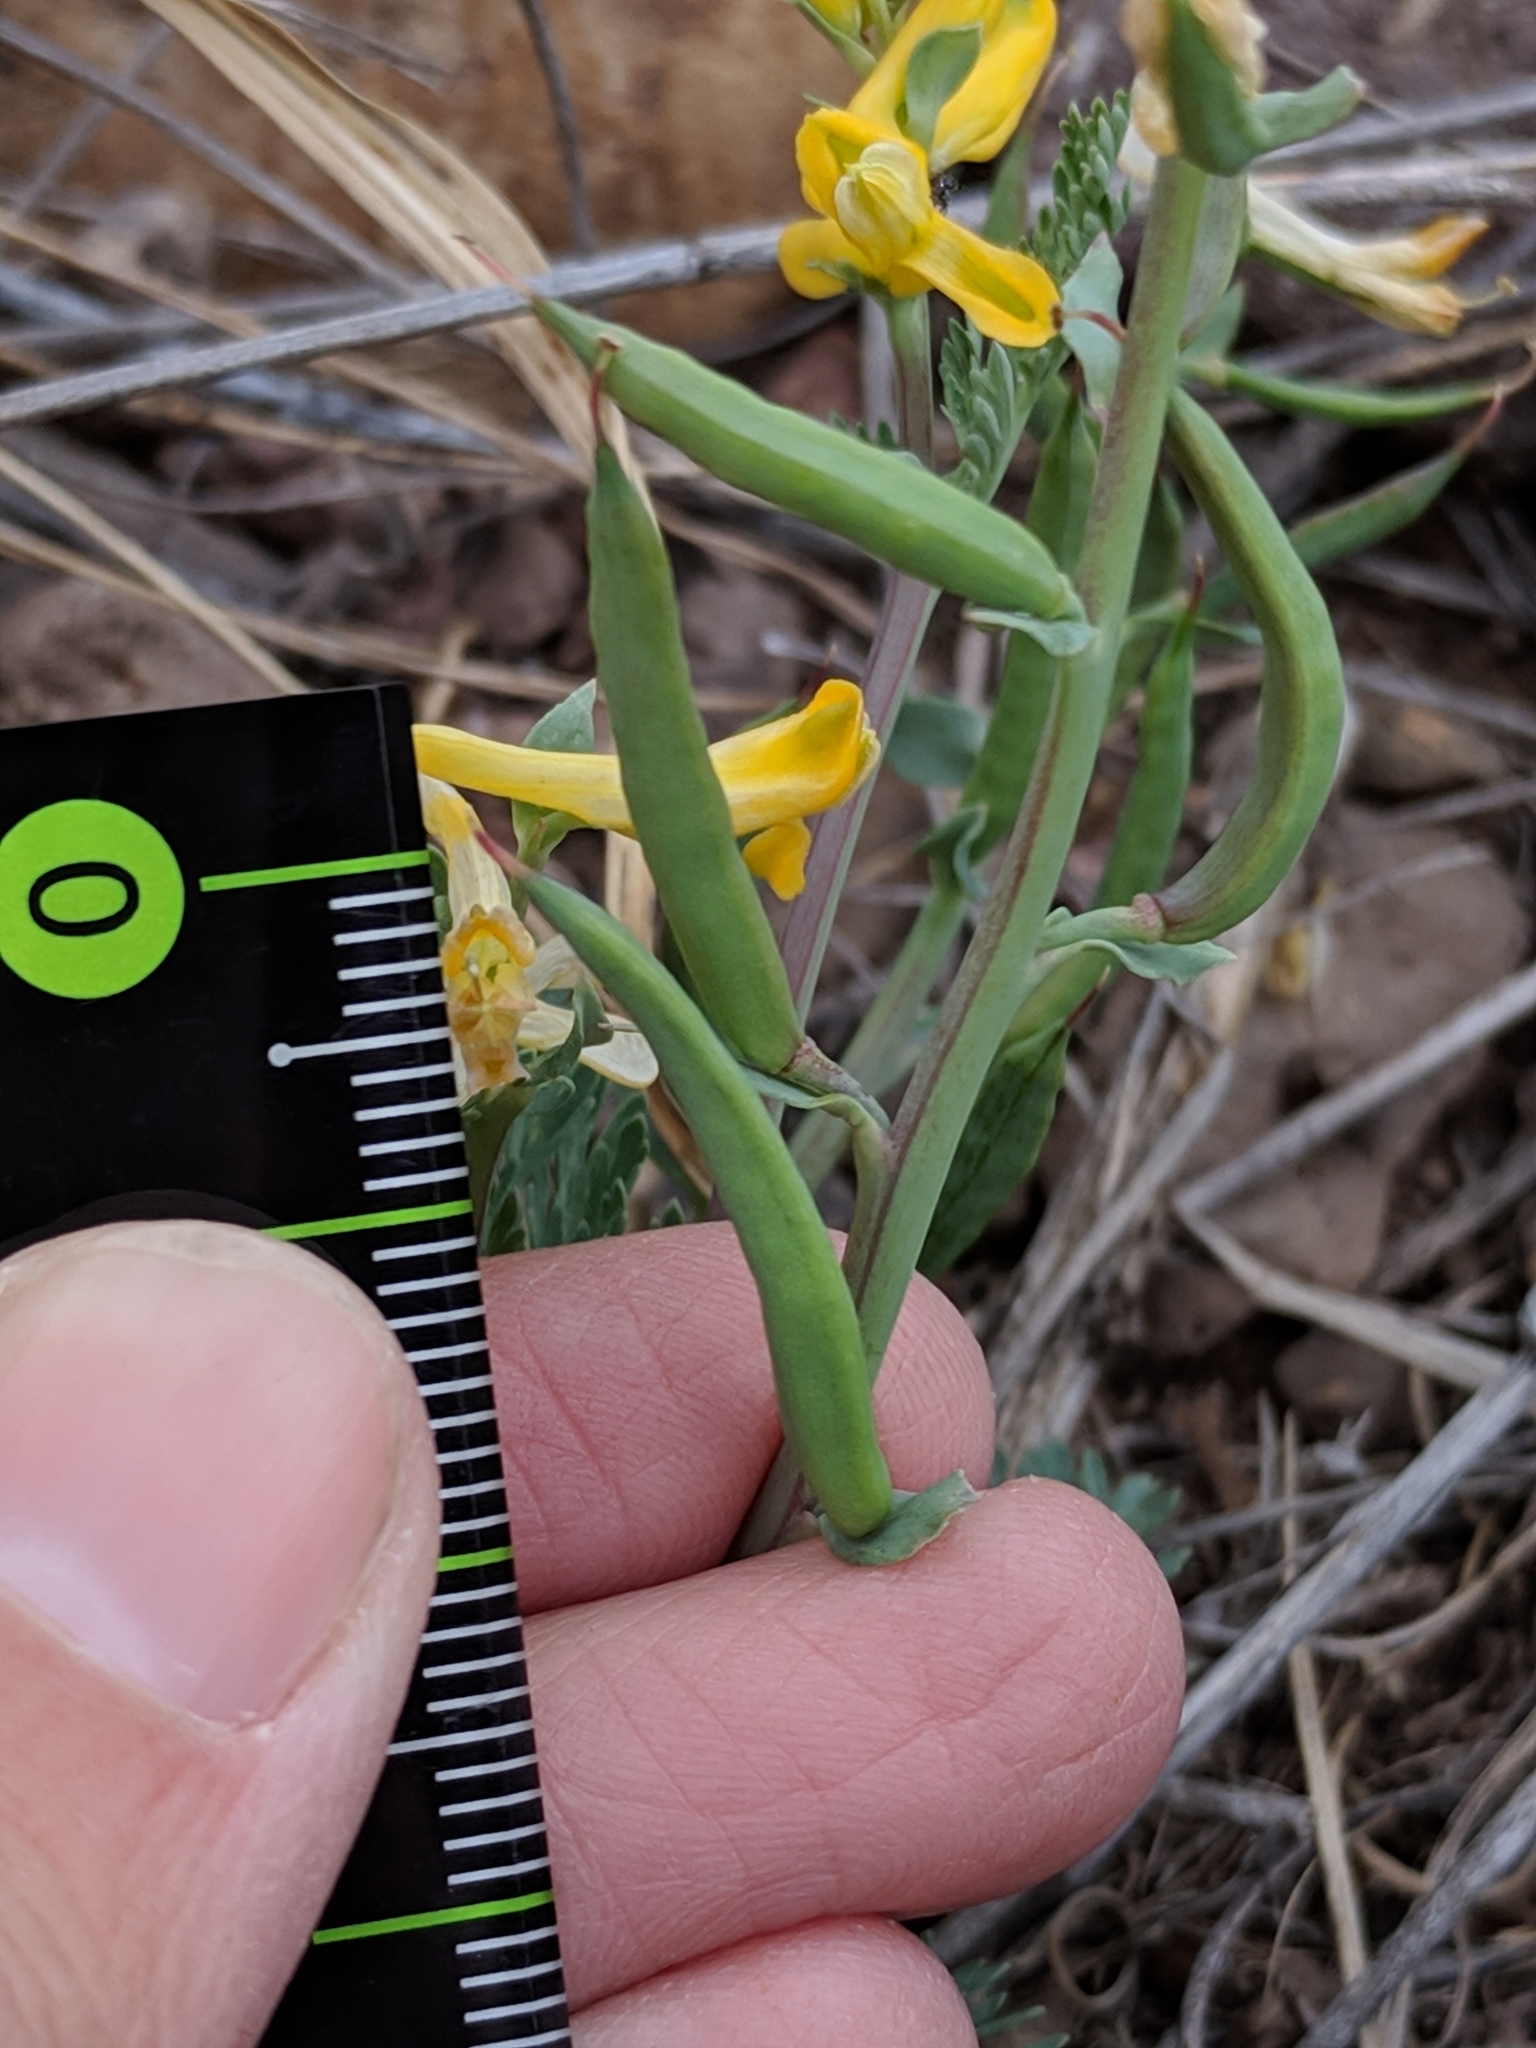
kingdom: Plantae
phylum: Tracheophyta
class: Magnoliopsida
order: Ranunculales
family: Papaveraceae
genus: Corydalis
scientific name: Corydalis aurea
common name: Golden corydalis
